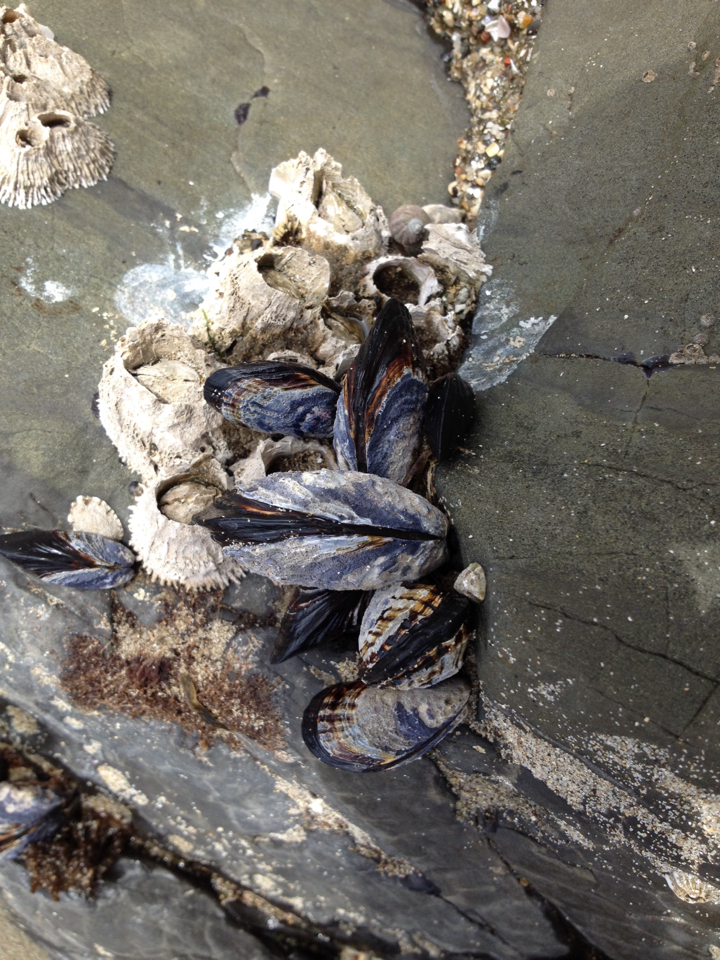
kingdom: Animalia
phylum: Mollusca
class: Bivalvia
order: Mytilida
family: Mytilidae
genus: Mytilus
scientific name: Mytilus californianus
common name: California mussel
